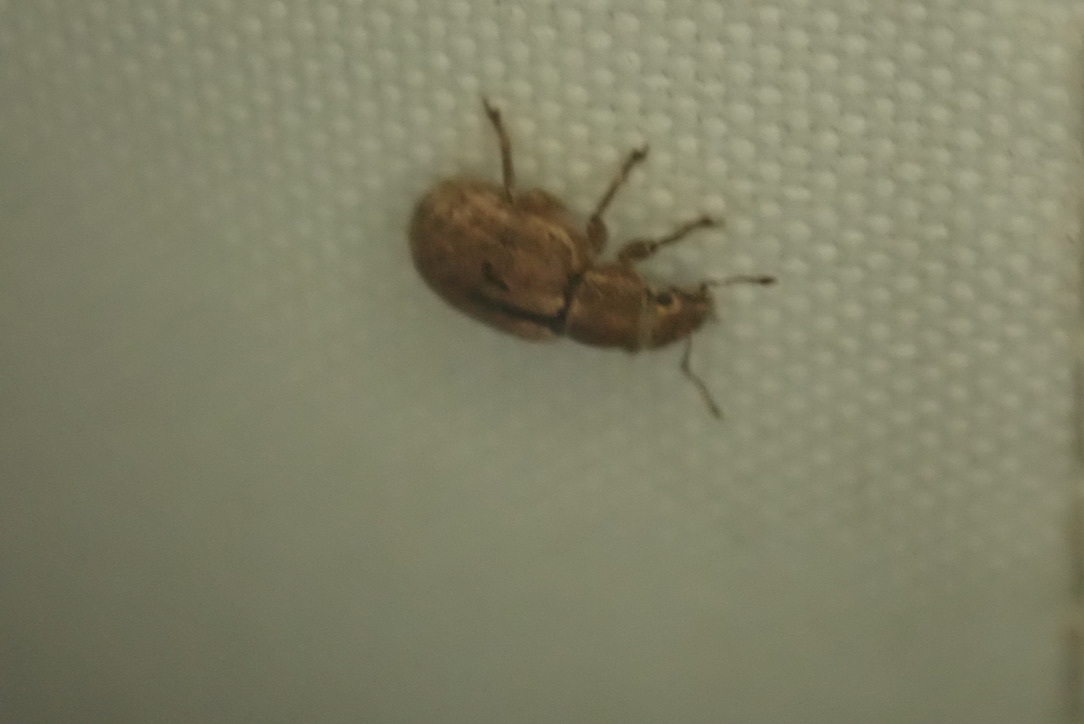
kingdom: Animalia
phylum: Arthropoda
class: Insecta
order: Coleoptera
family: Curculionidae
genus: Strophosoma
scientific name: Strophosoma melanogrammum
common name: Weevil
